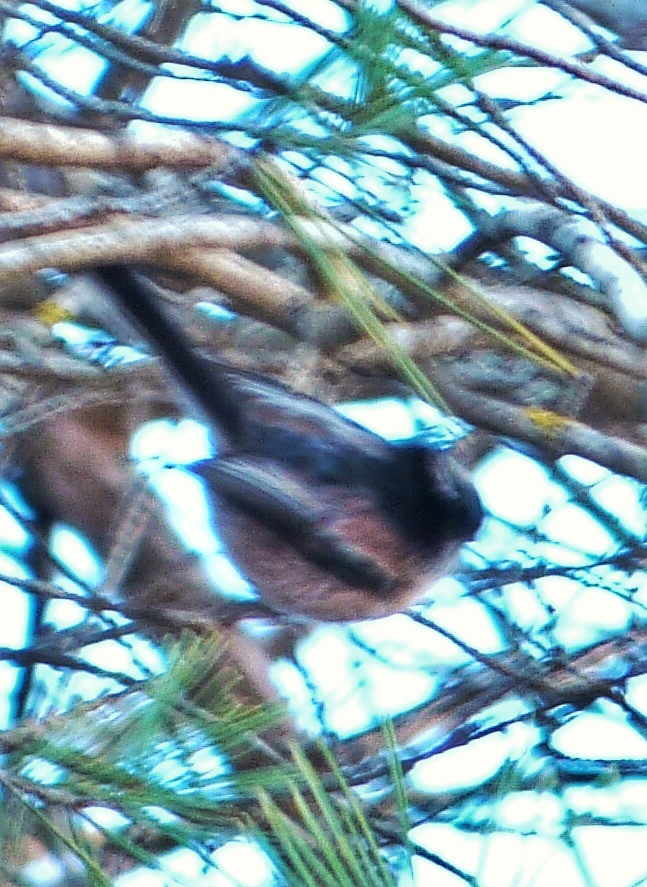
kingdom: Animalia
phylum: Chordata
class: Aves
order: Passeriformes
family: Aegithalidae
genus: Aegithalos
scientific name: Aegithalos caudatus
